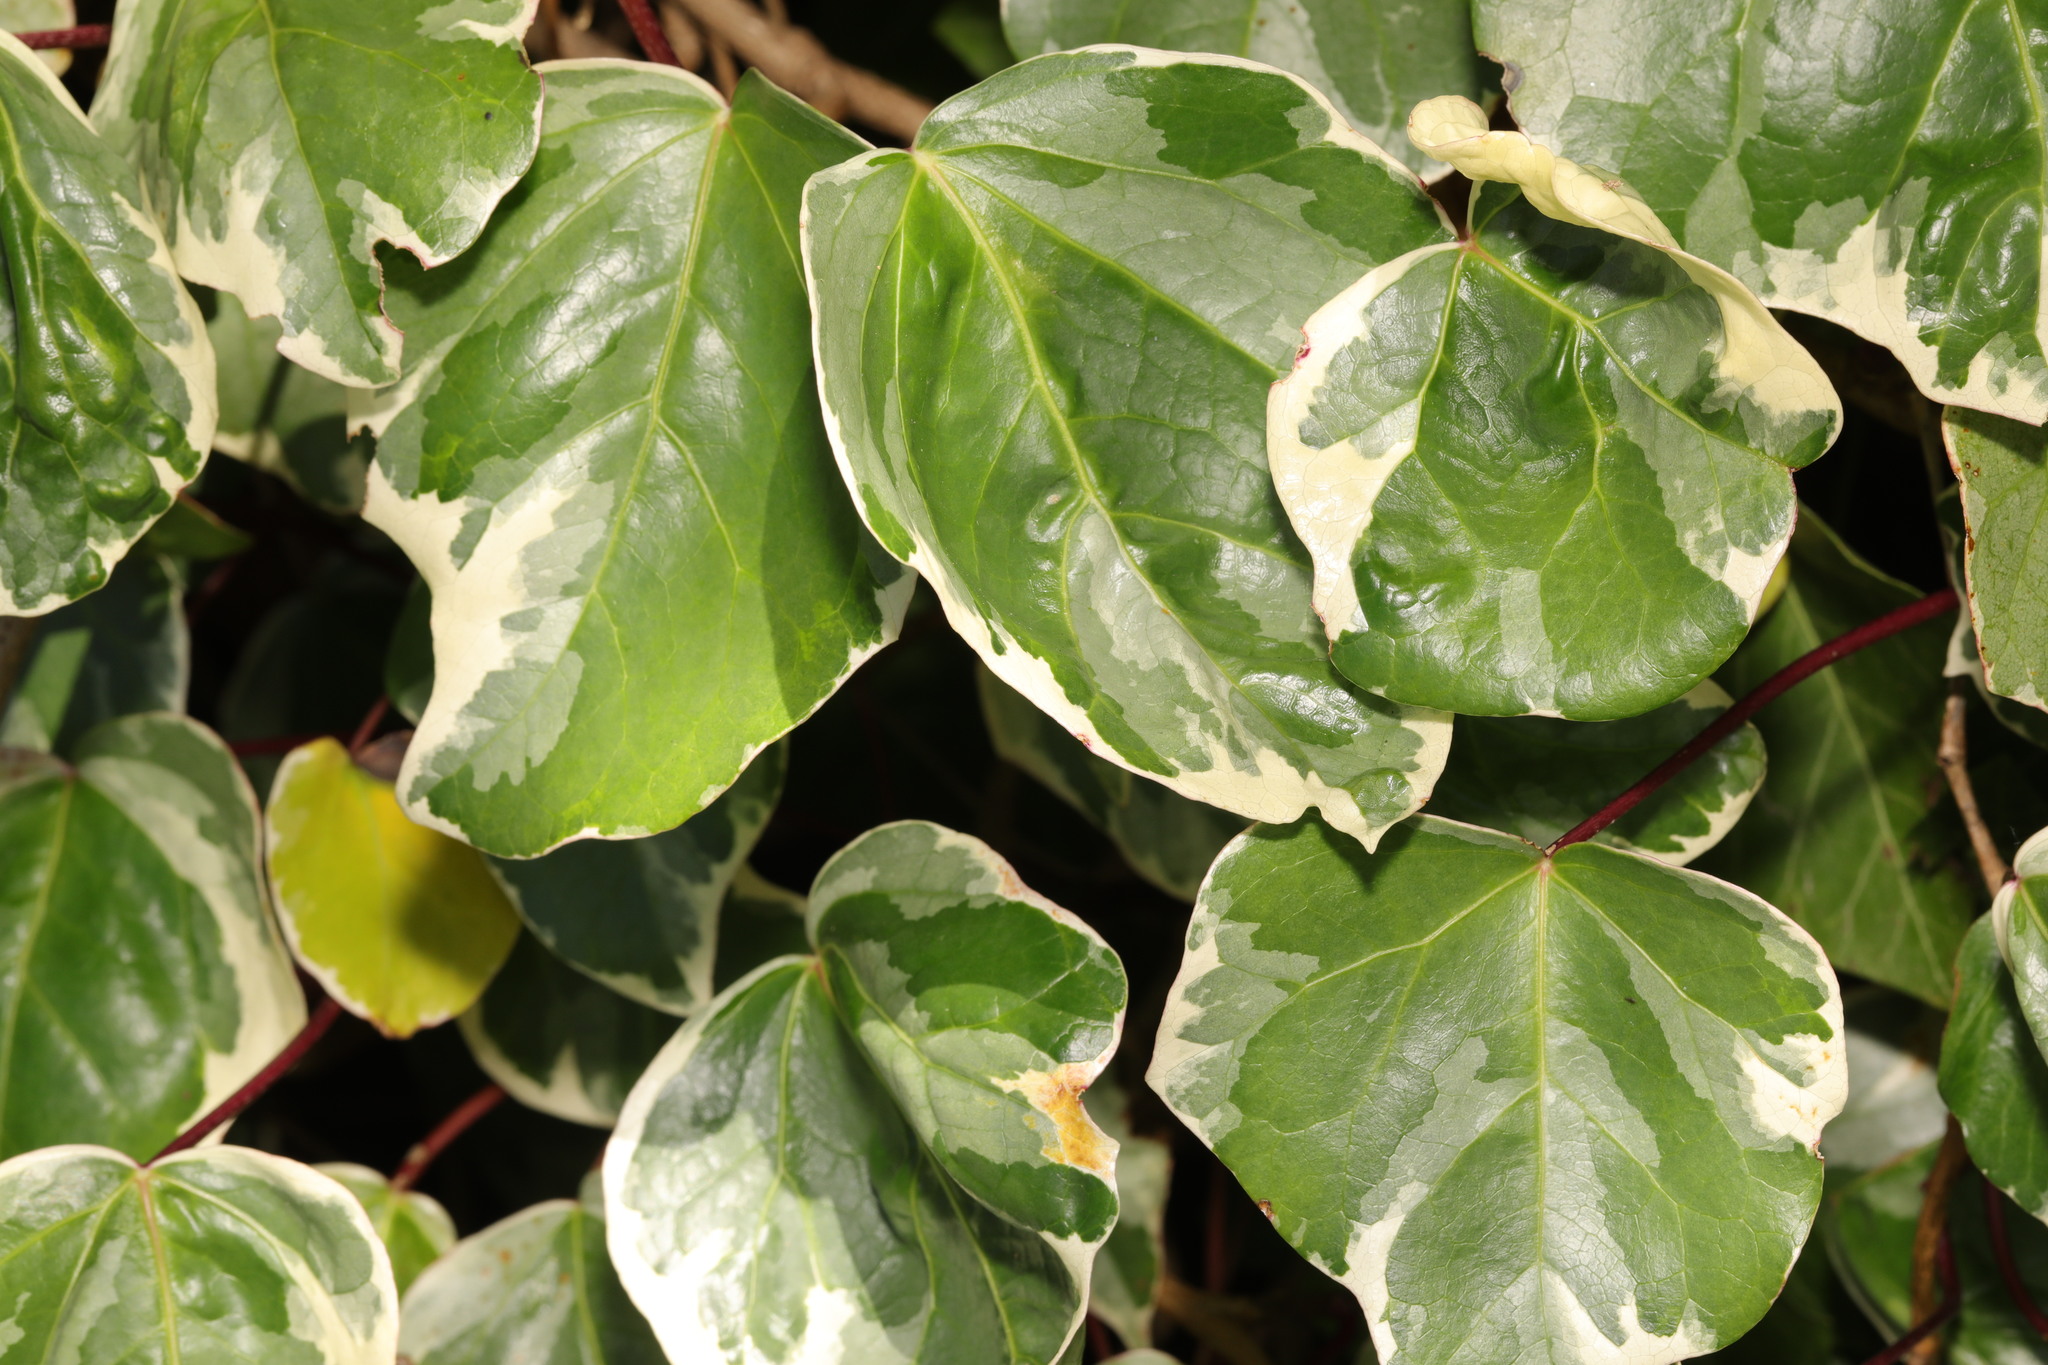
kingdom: Plantae
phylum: Tracheophyta
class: Magnoliopsida
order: Apiales
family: Araliaceae
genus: Hedera
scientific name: Hedera colchica
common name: Persian ivy
